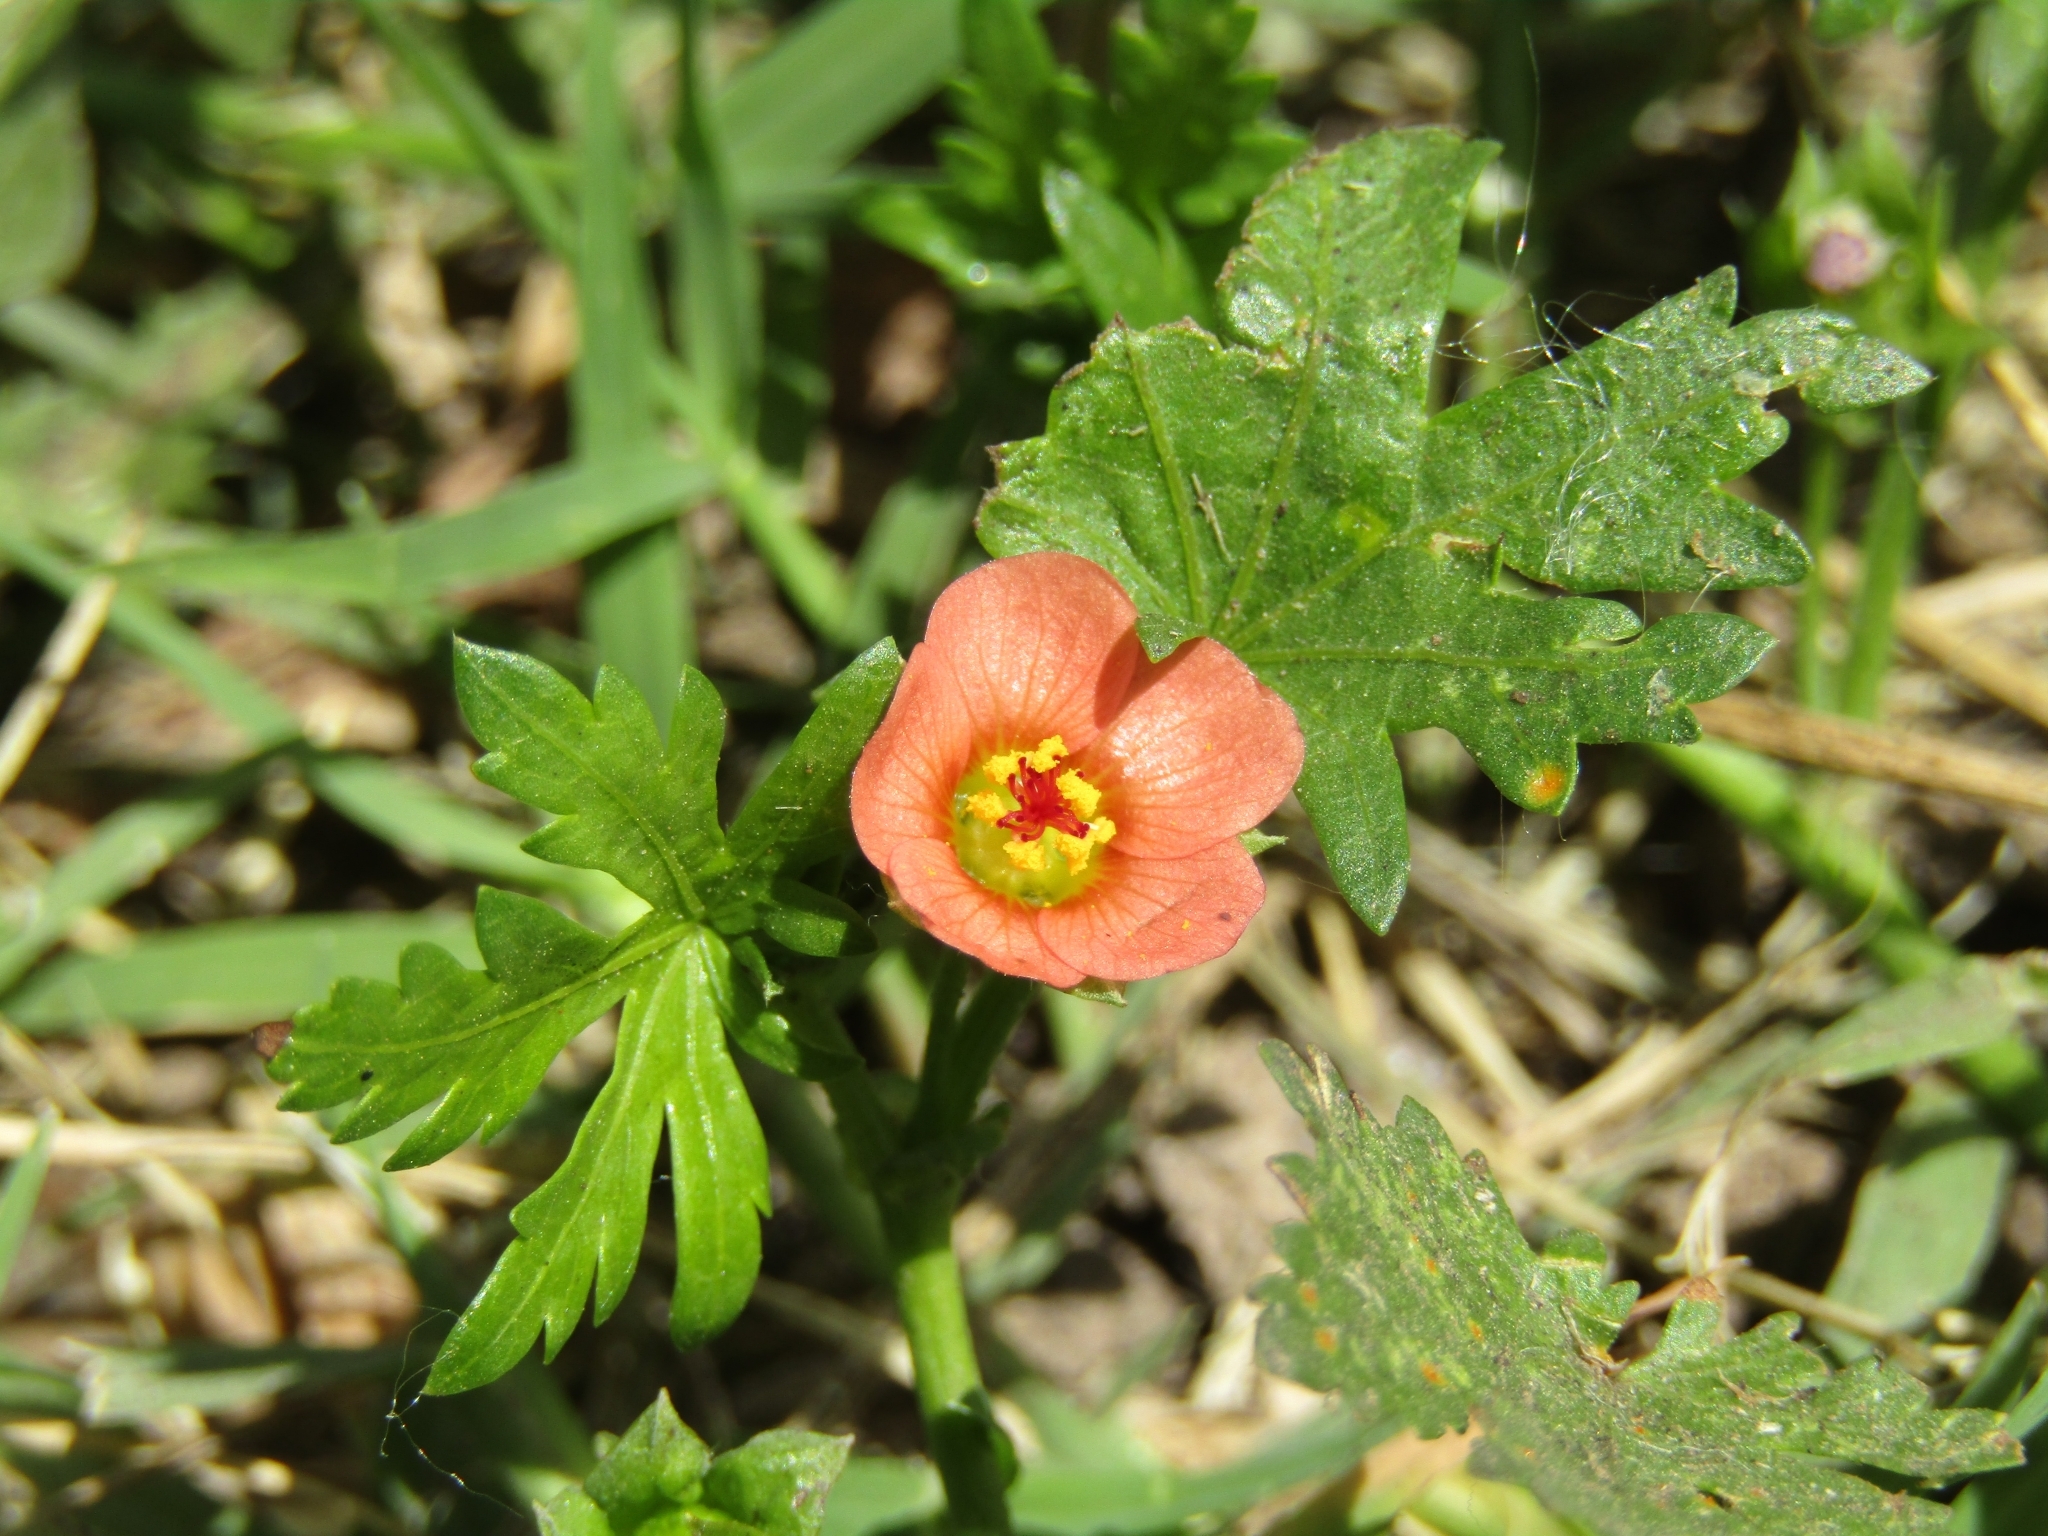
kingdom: Plantae
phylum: Tracheophyta
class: Magnoliopsida
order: Malvales
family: Malvaceae
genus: Modiola
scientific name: Modiola caroliniana
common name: Carolina bristlemallow
